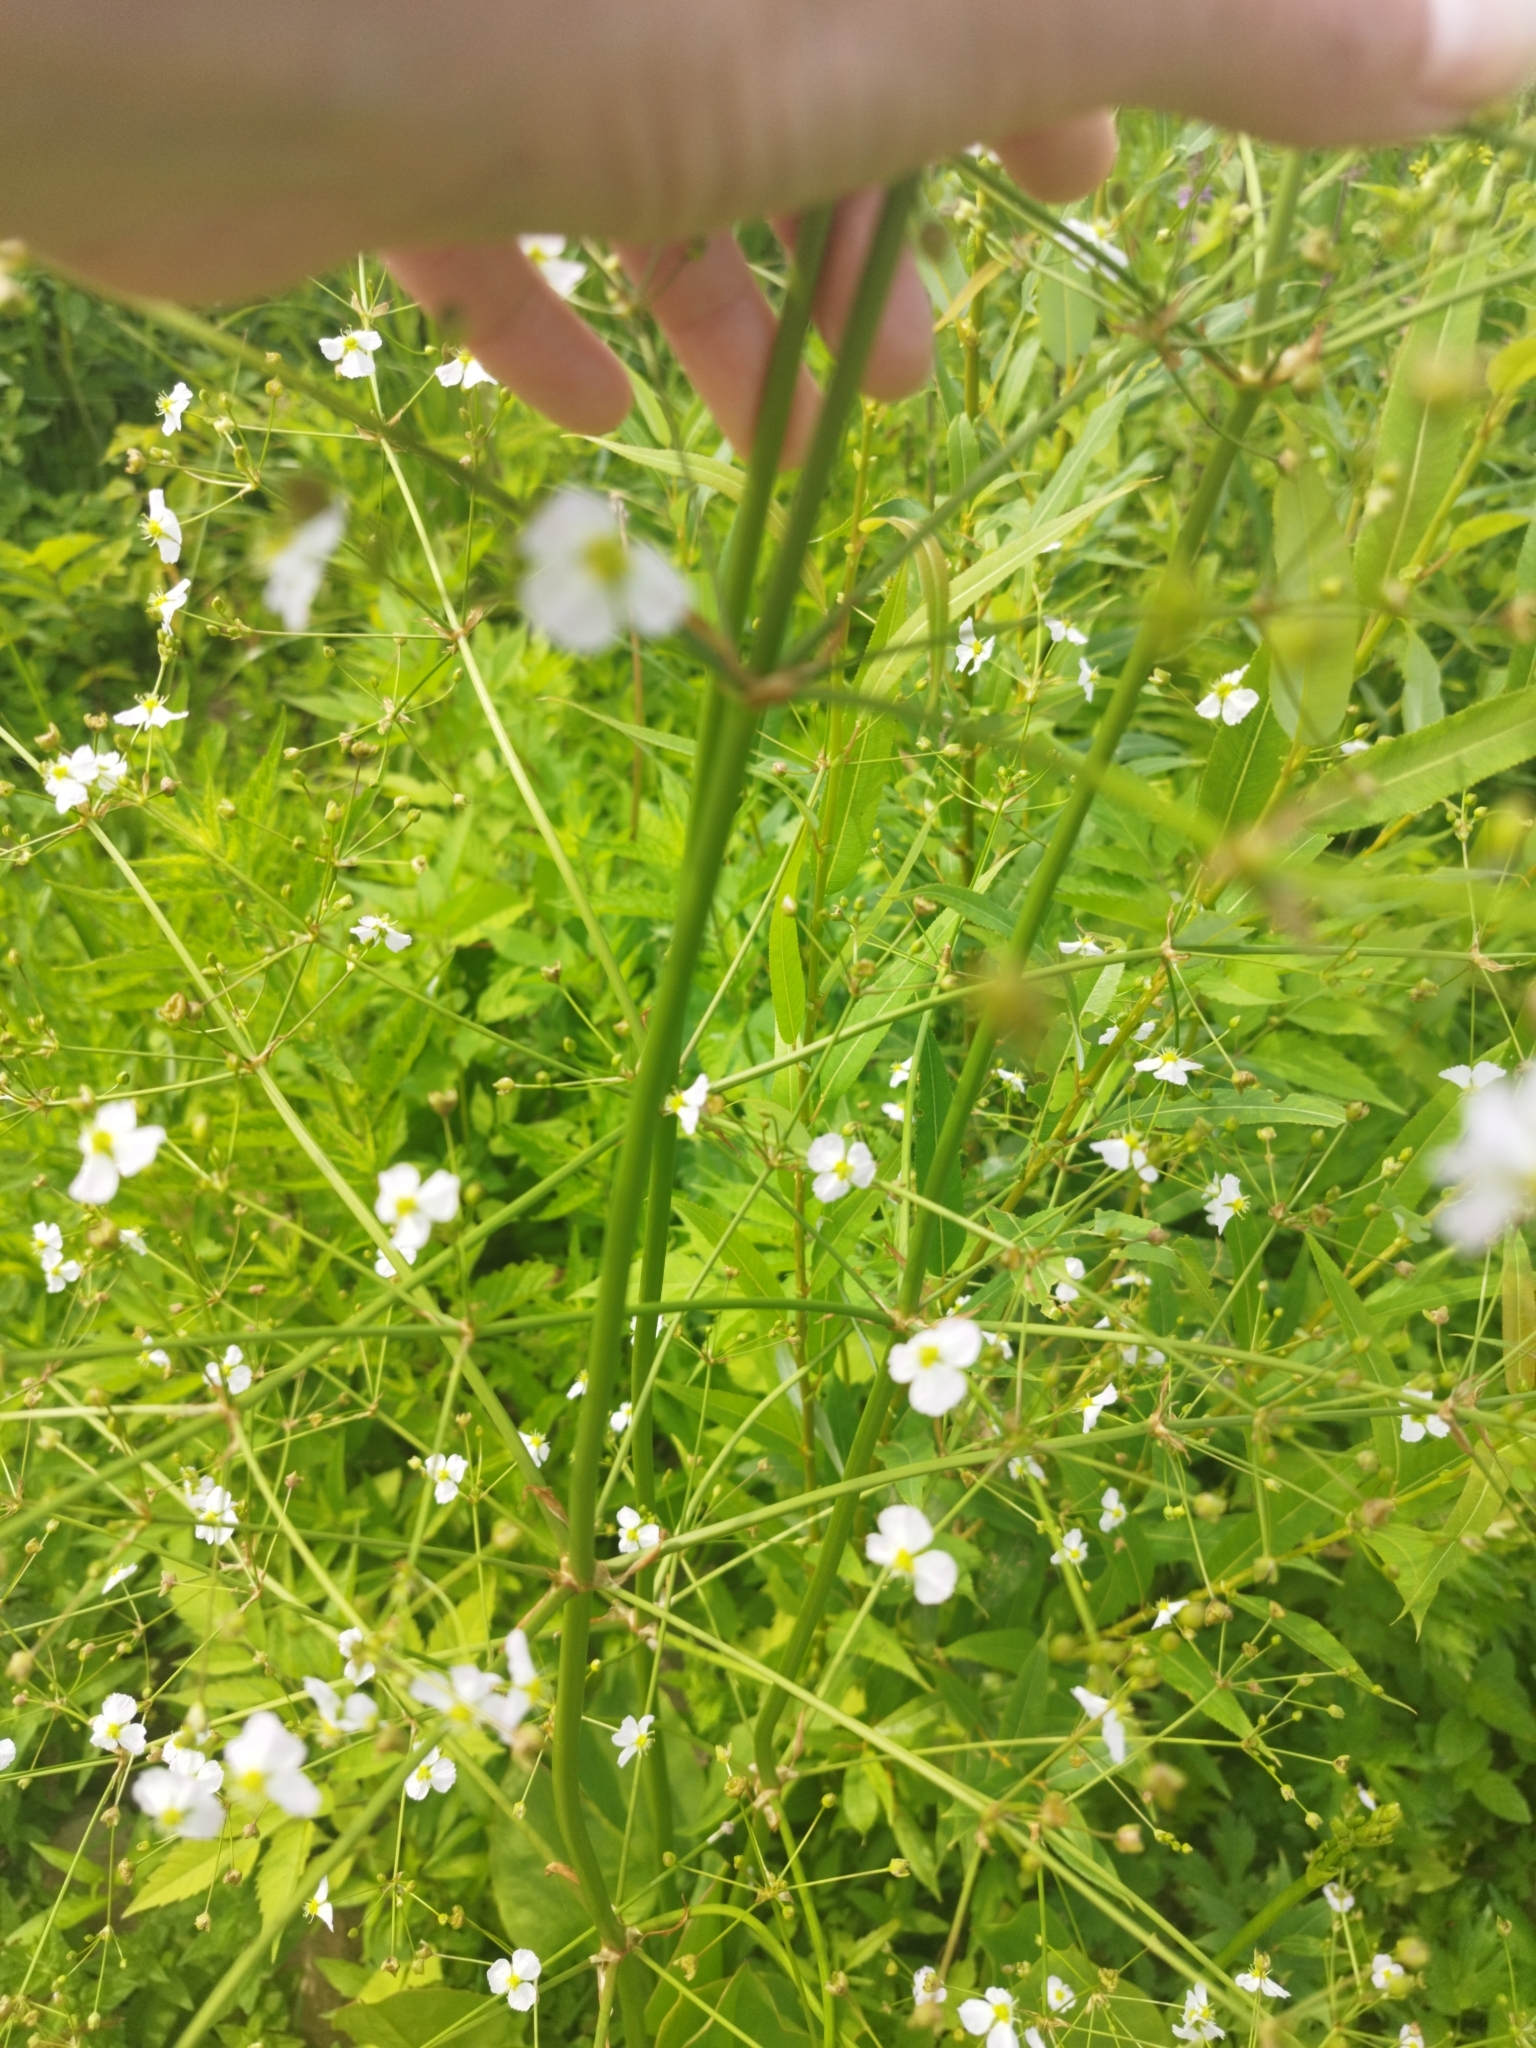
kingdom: Plantae
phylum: Tracheophyta
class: Liliopsida
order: Alismatales
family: Alismataceae
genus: Alisma
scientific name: Alisma plantago-aquatica
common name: Water-plantain
